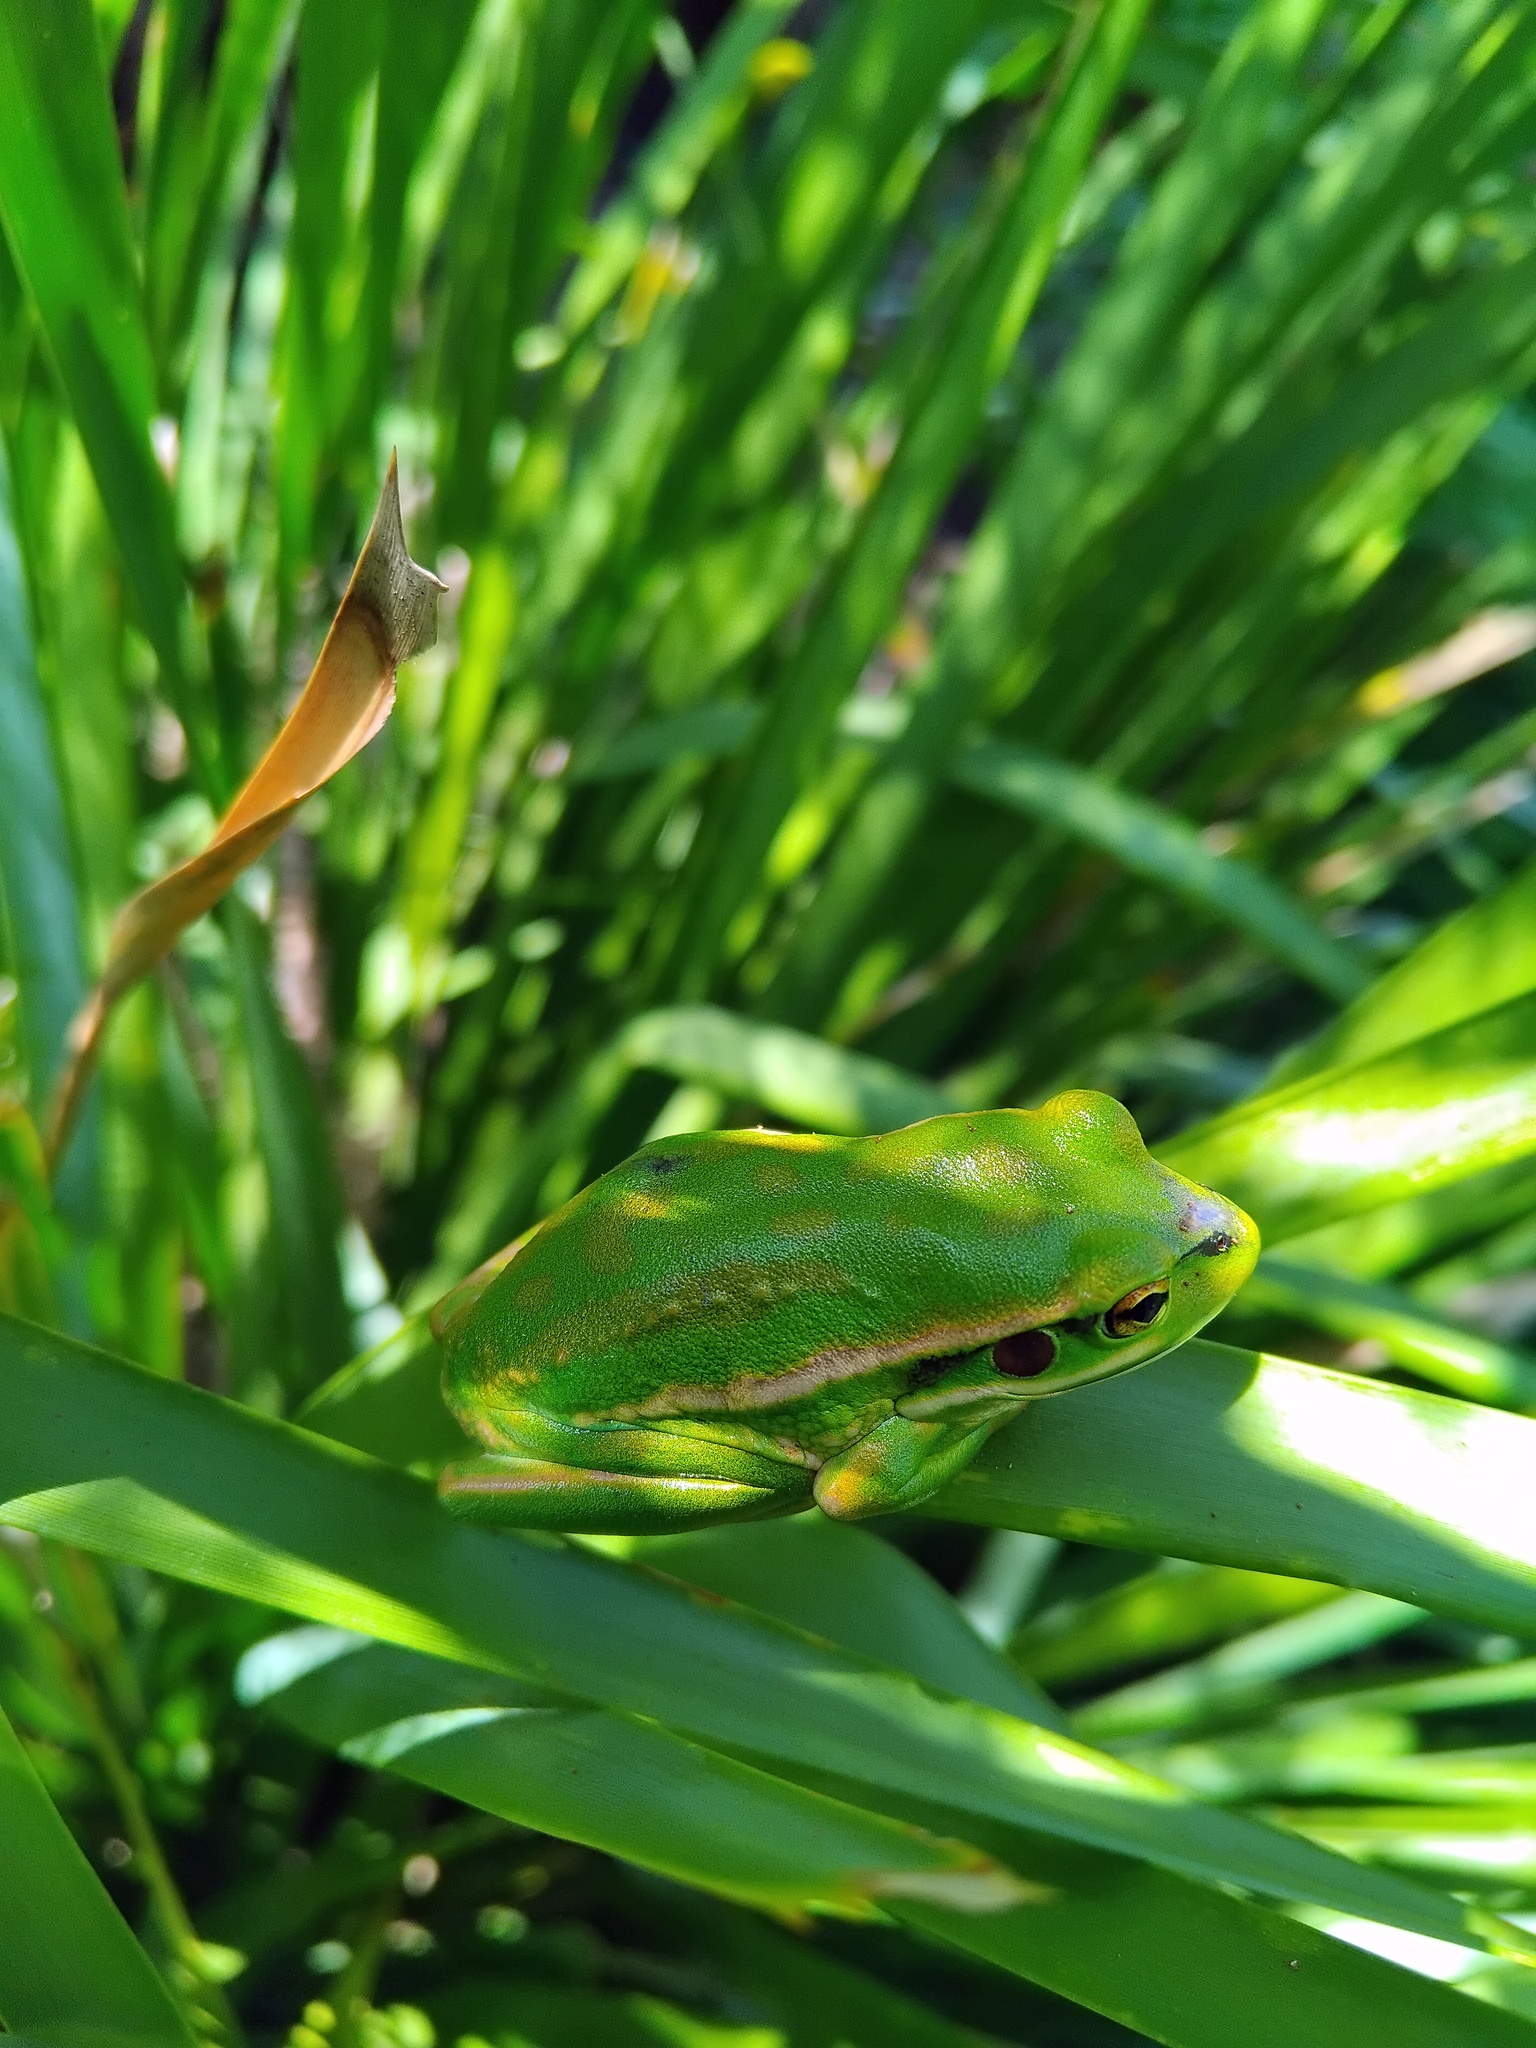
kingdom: Animalia
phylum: Chordata
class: Amphibia
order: Anura
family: Pelodryadidae
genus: Ranoidea
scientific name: Ranoidea aurea
